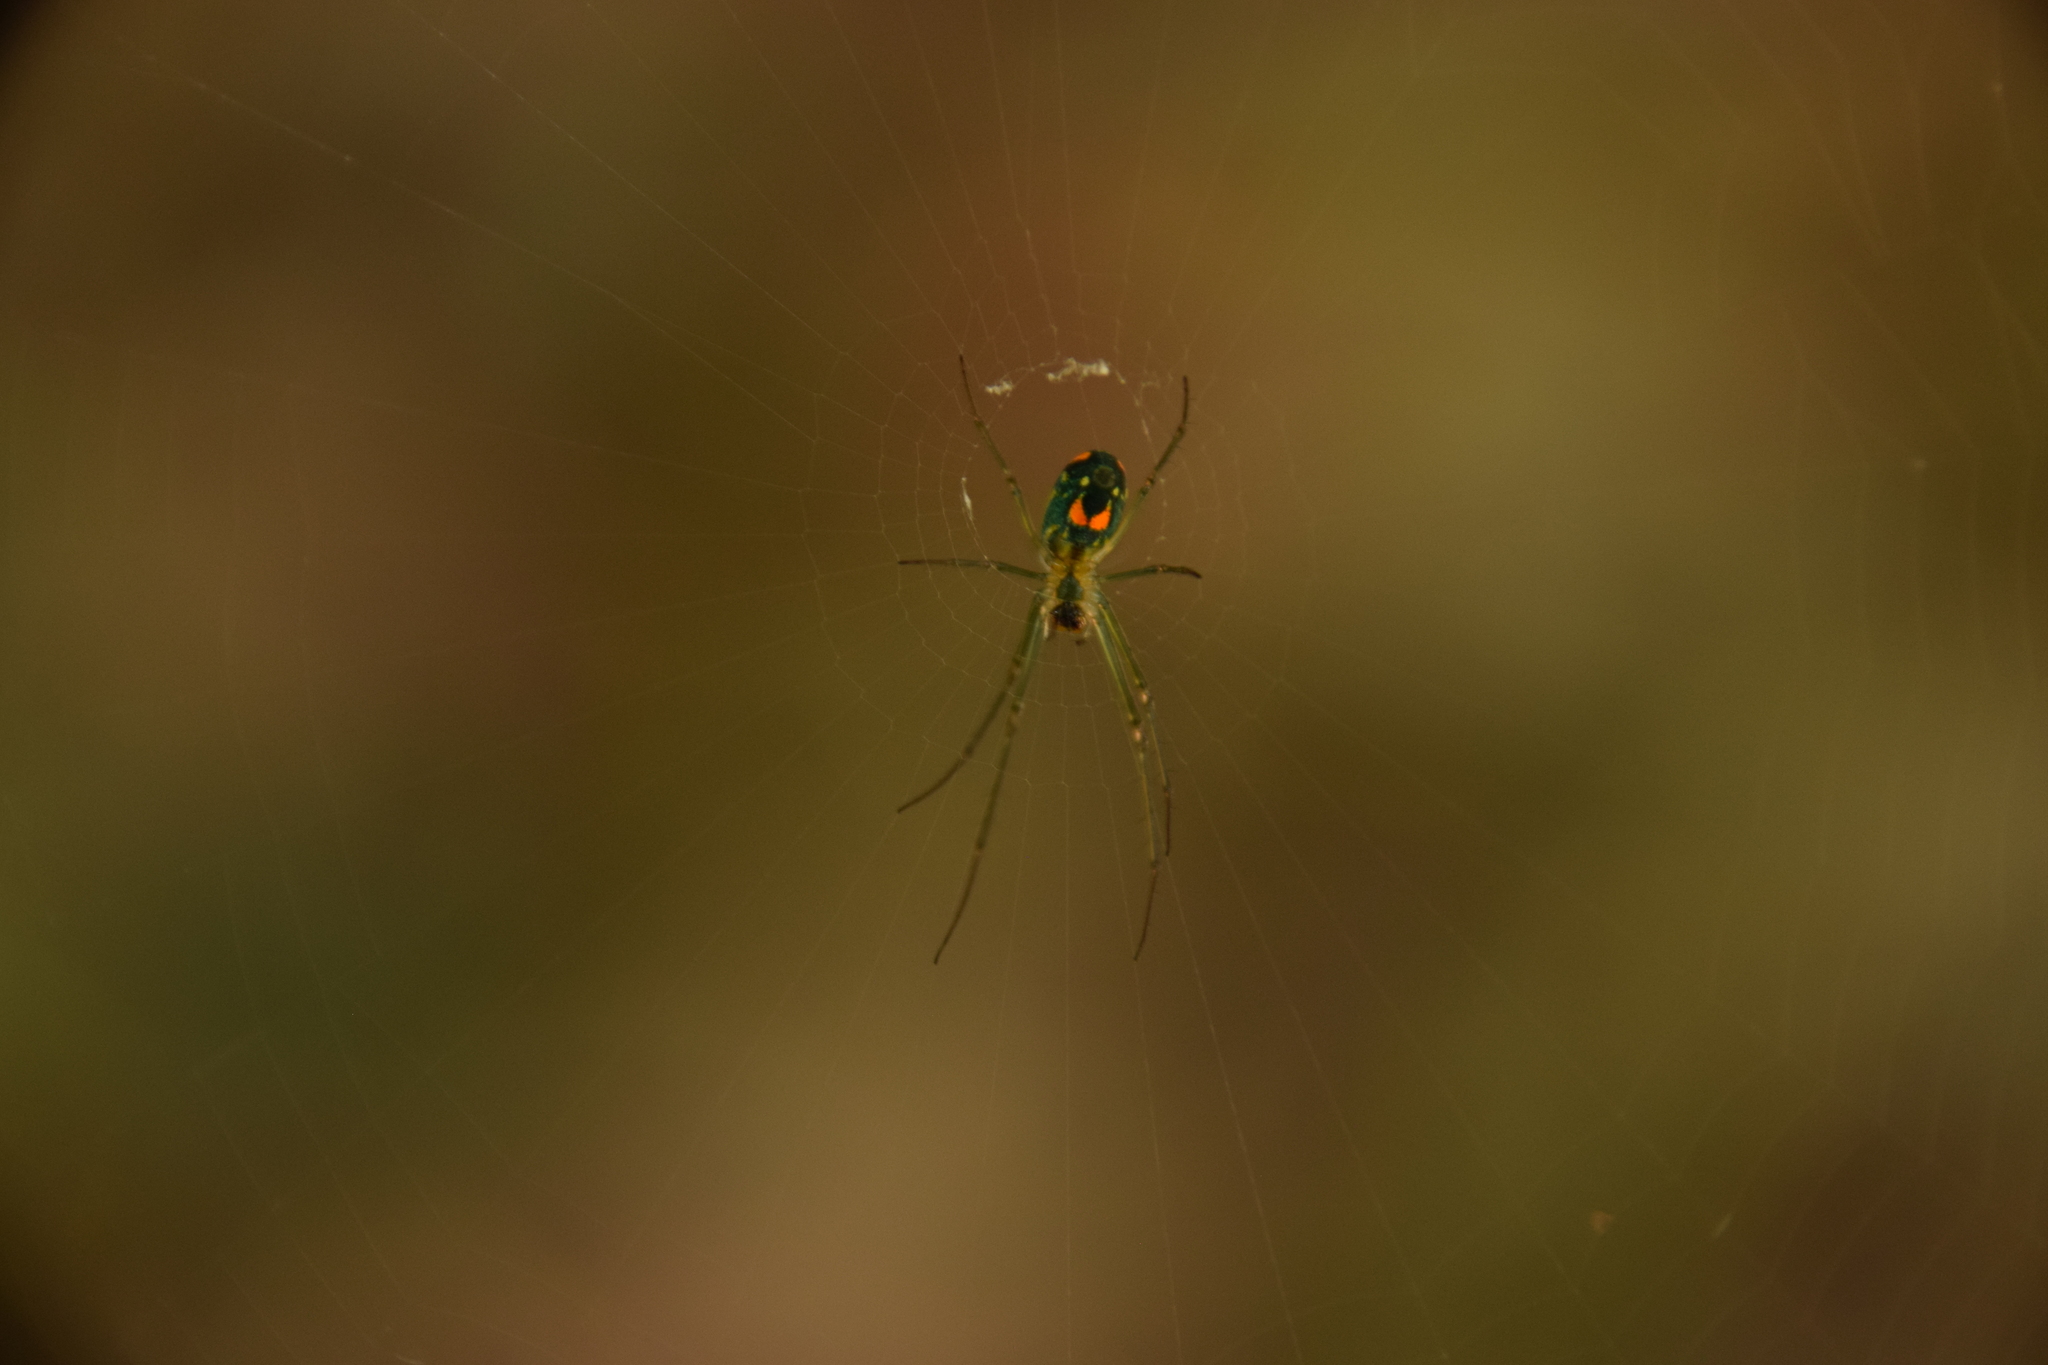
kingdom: Animalia
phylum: Arthropoda
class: Arachnida
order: Araneae
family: Tetragnathidae
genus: Leucauge
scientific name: Leucauge argyrobapta
